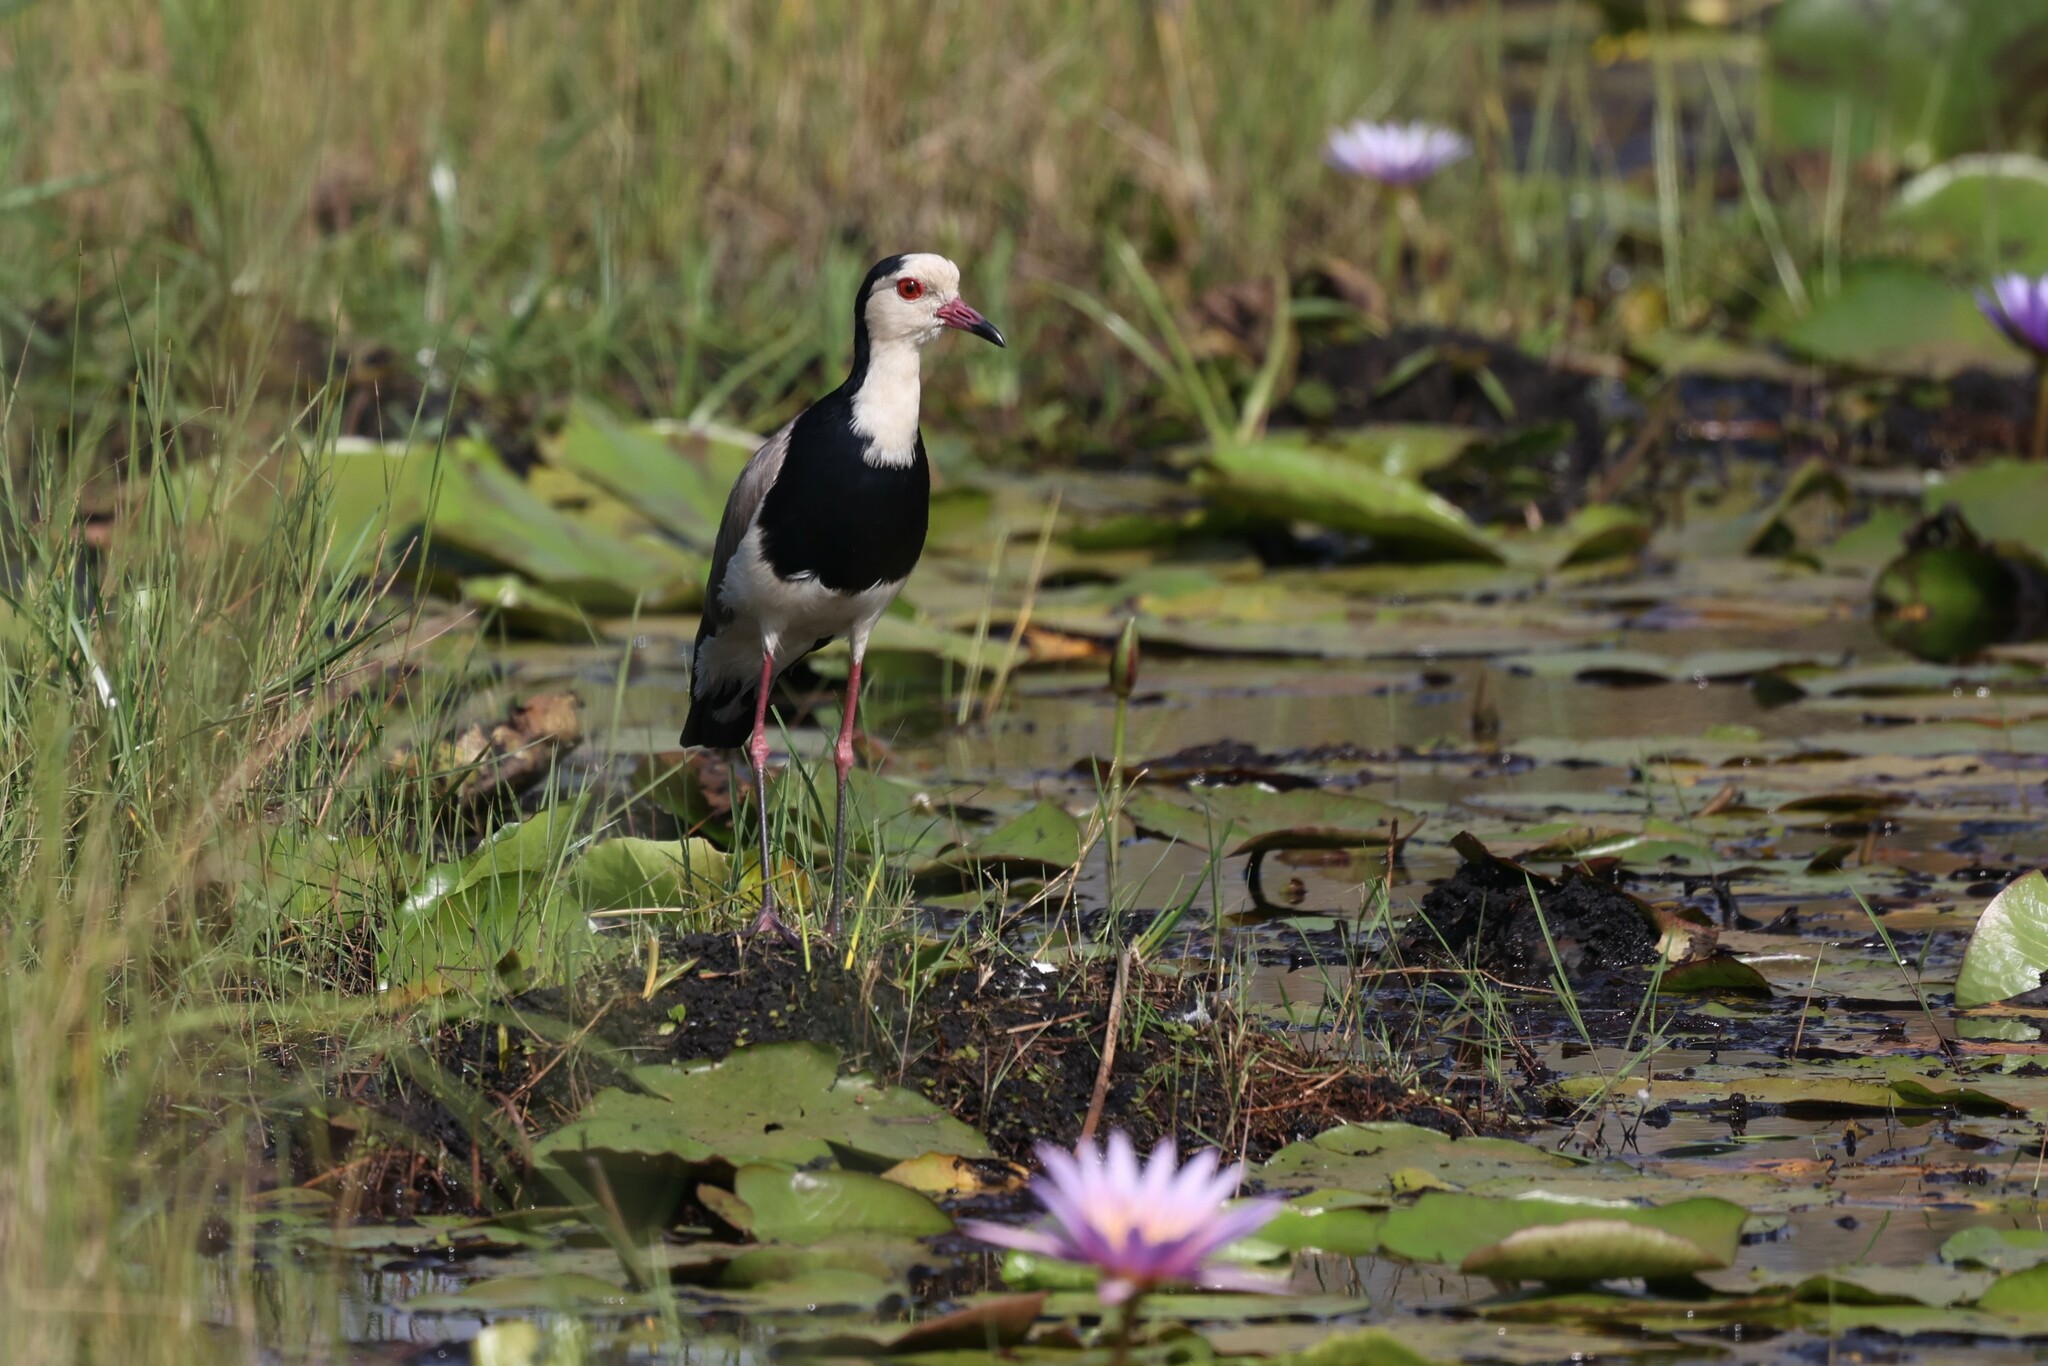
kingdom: Animalia
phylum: Chordata
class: Aves
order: Charadriiformes
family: Charadriidae
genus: Vanellus
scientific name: Vanellus crassirostris
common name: Long-toed lapwing
